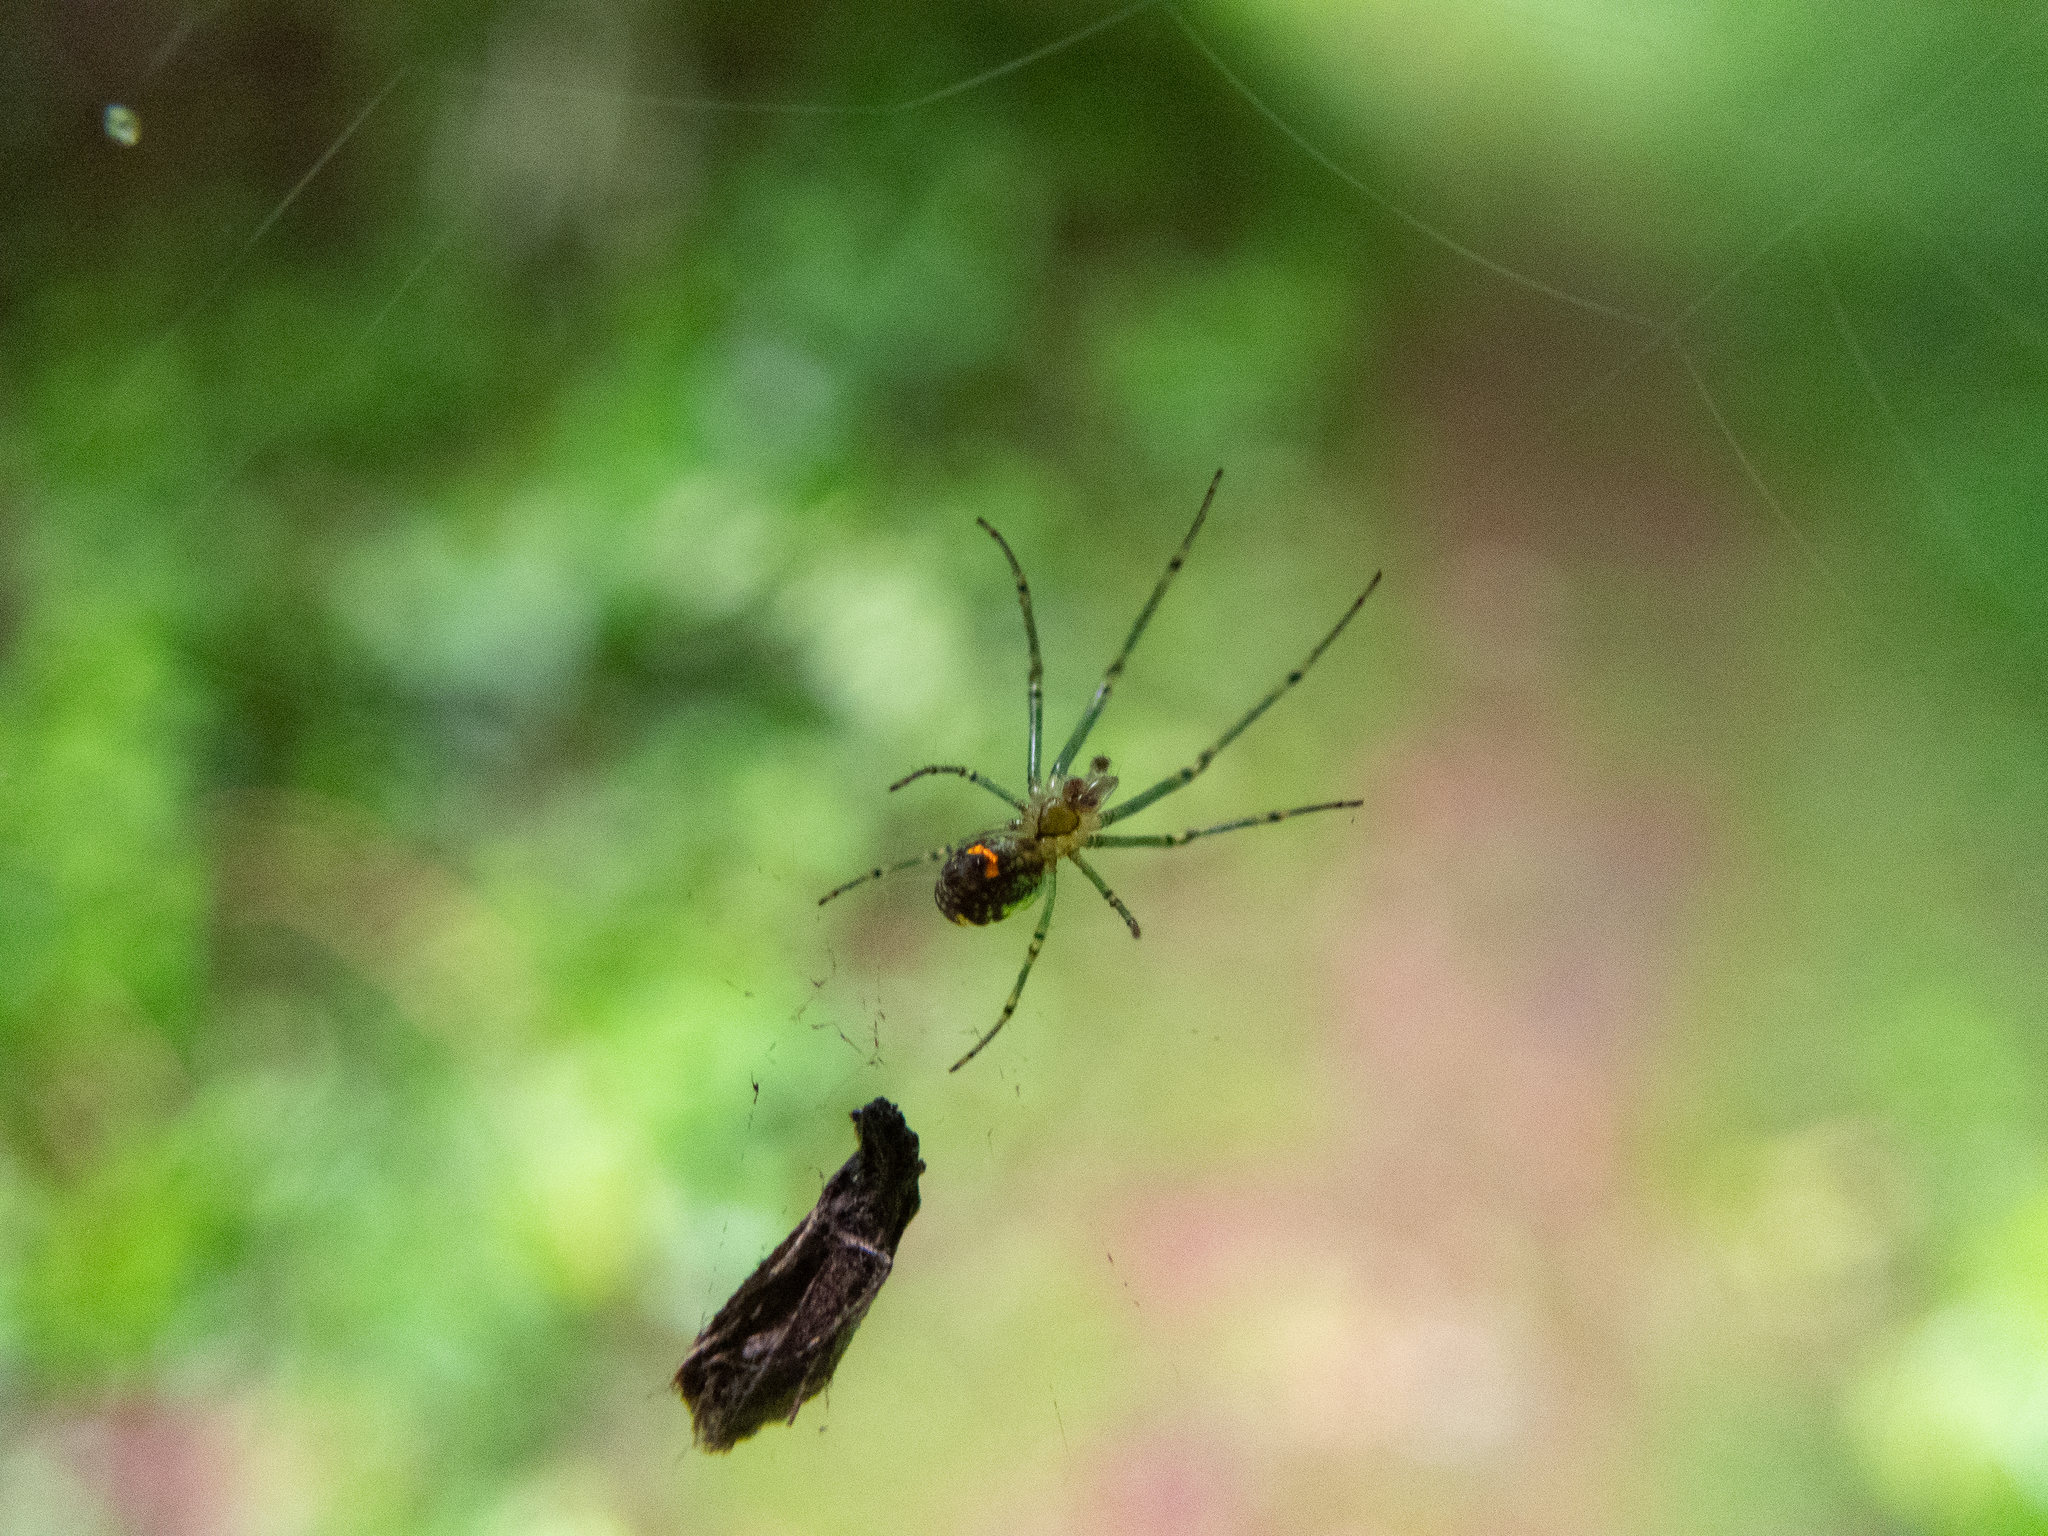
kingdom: Animalia
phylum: Arthropoda
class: Arachnida
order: Araneae
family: Tetragnathidae
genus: Leucauge
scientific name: Leucauge venusta
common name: Longjawed orb weavers
